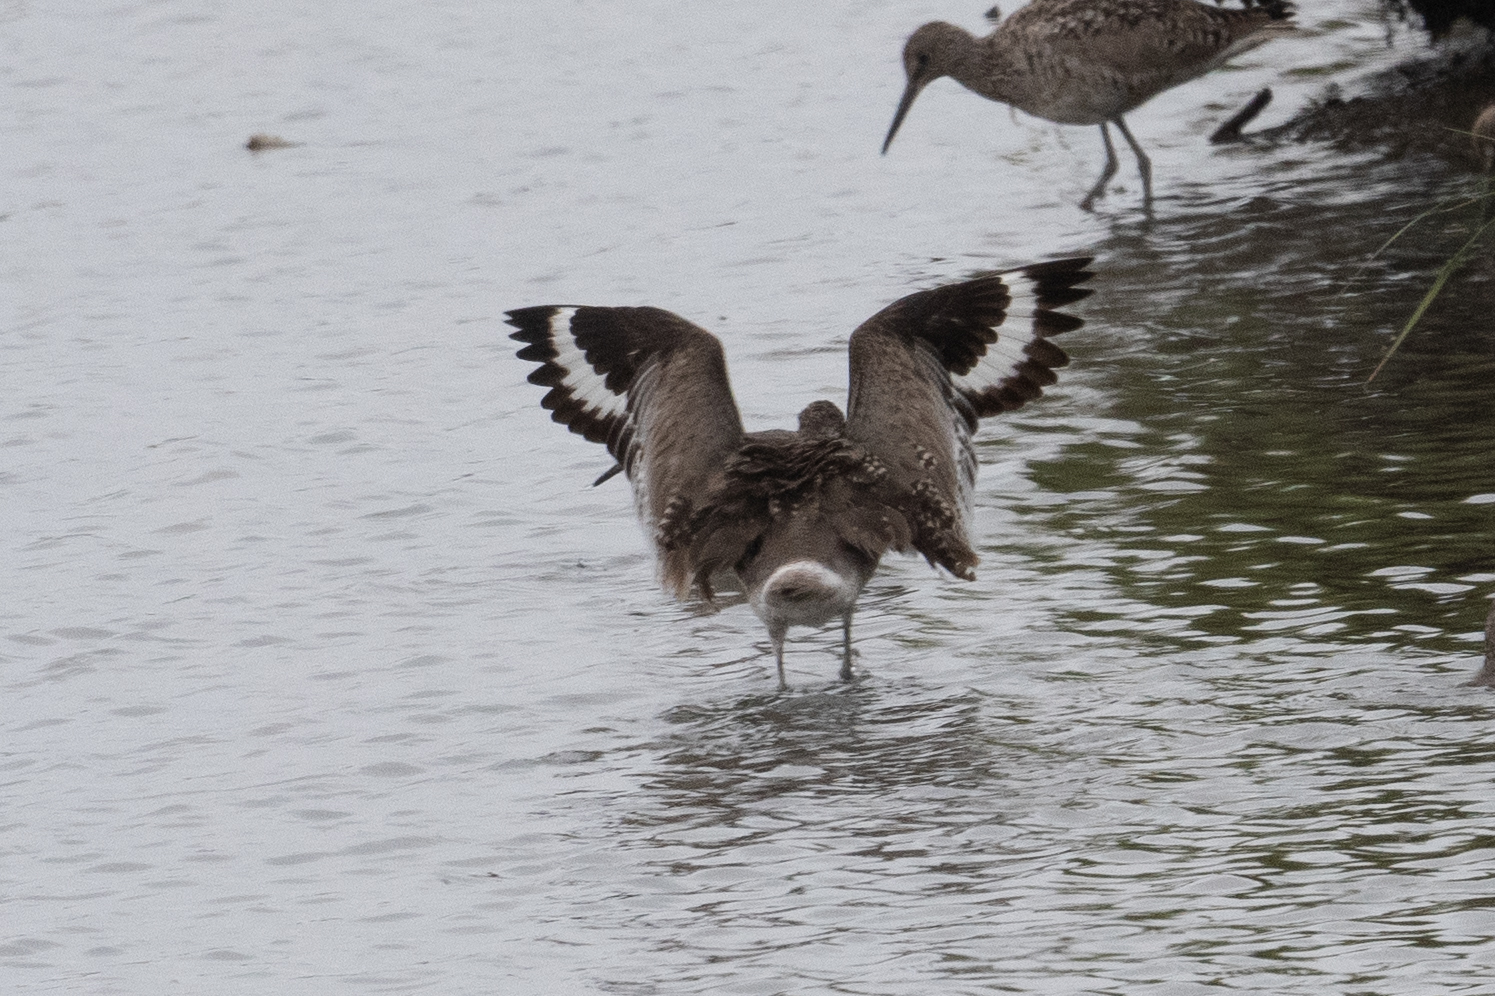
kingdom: Animalia
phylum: Chordata
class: Aves
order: Charadriiformes
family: Scolopacidae
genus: Tringa
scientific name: Tringa semipalmata
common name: Willet
